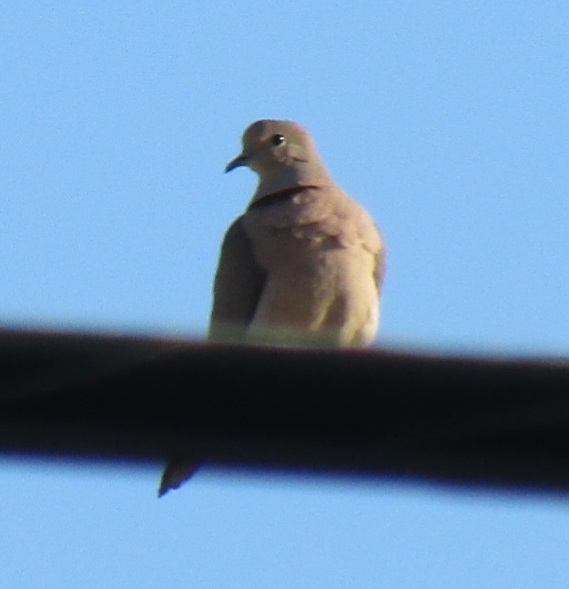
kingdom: Animalia
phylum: Chordata
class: Aves
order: Columbiformes
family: Columbidae
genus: Streptopelia
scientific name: Streptopelia decaocto
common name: Eurasian collared dove
